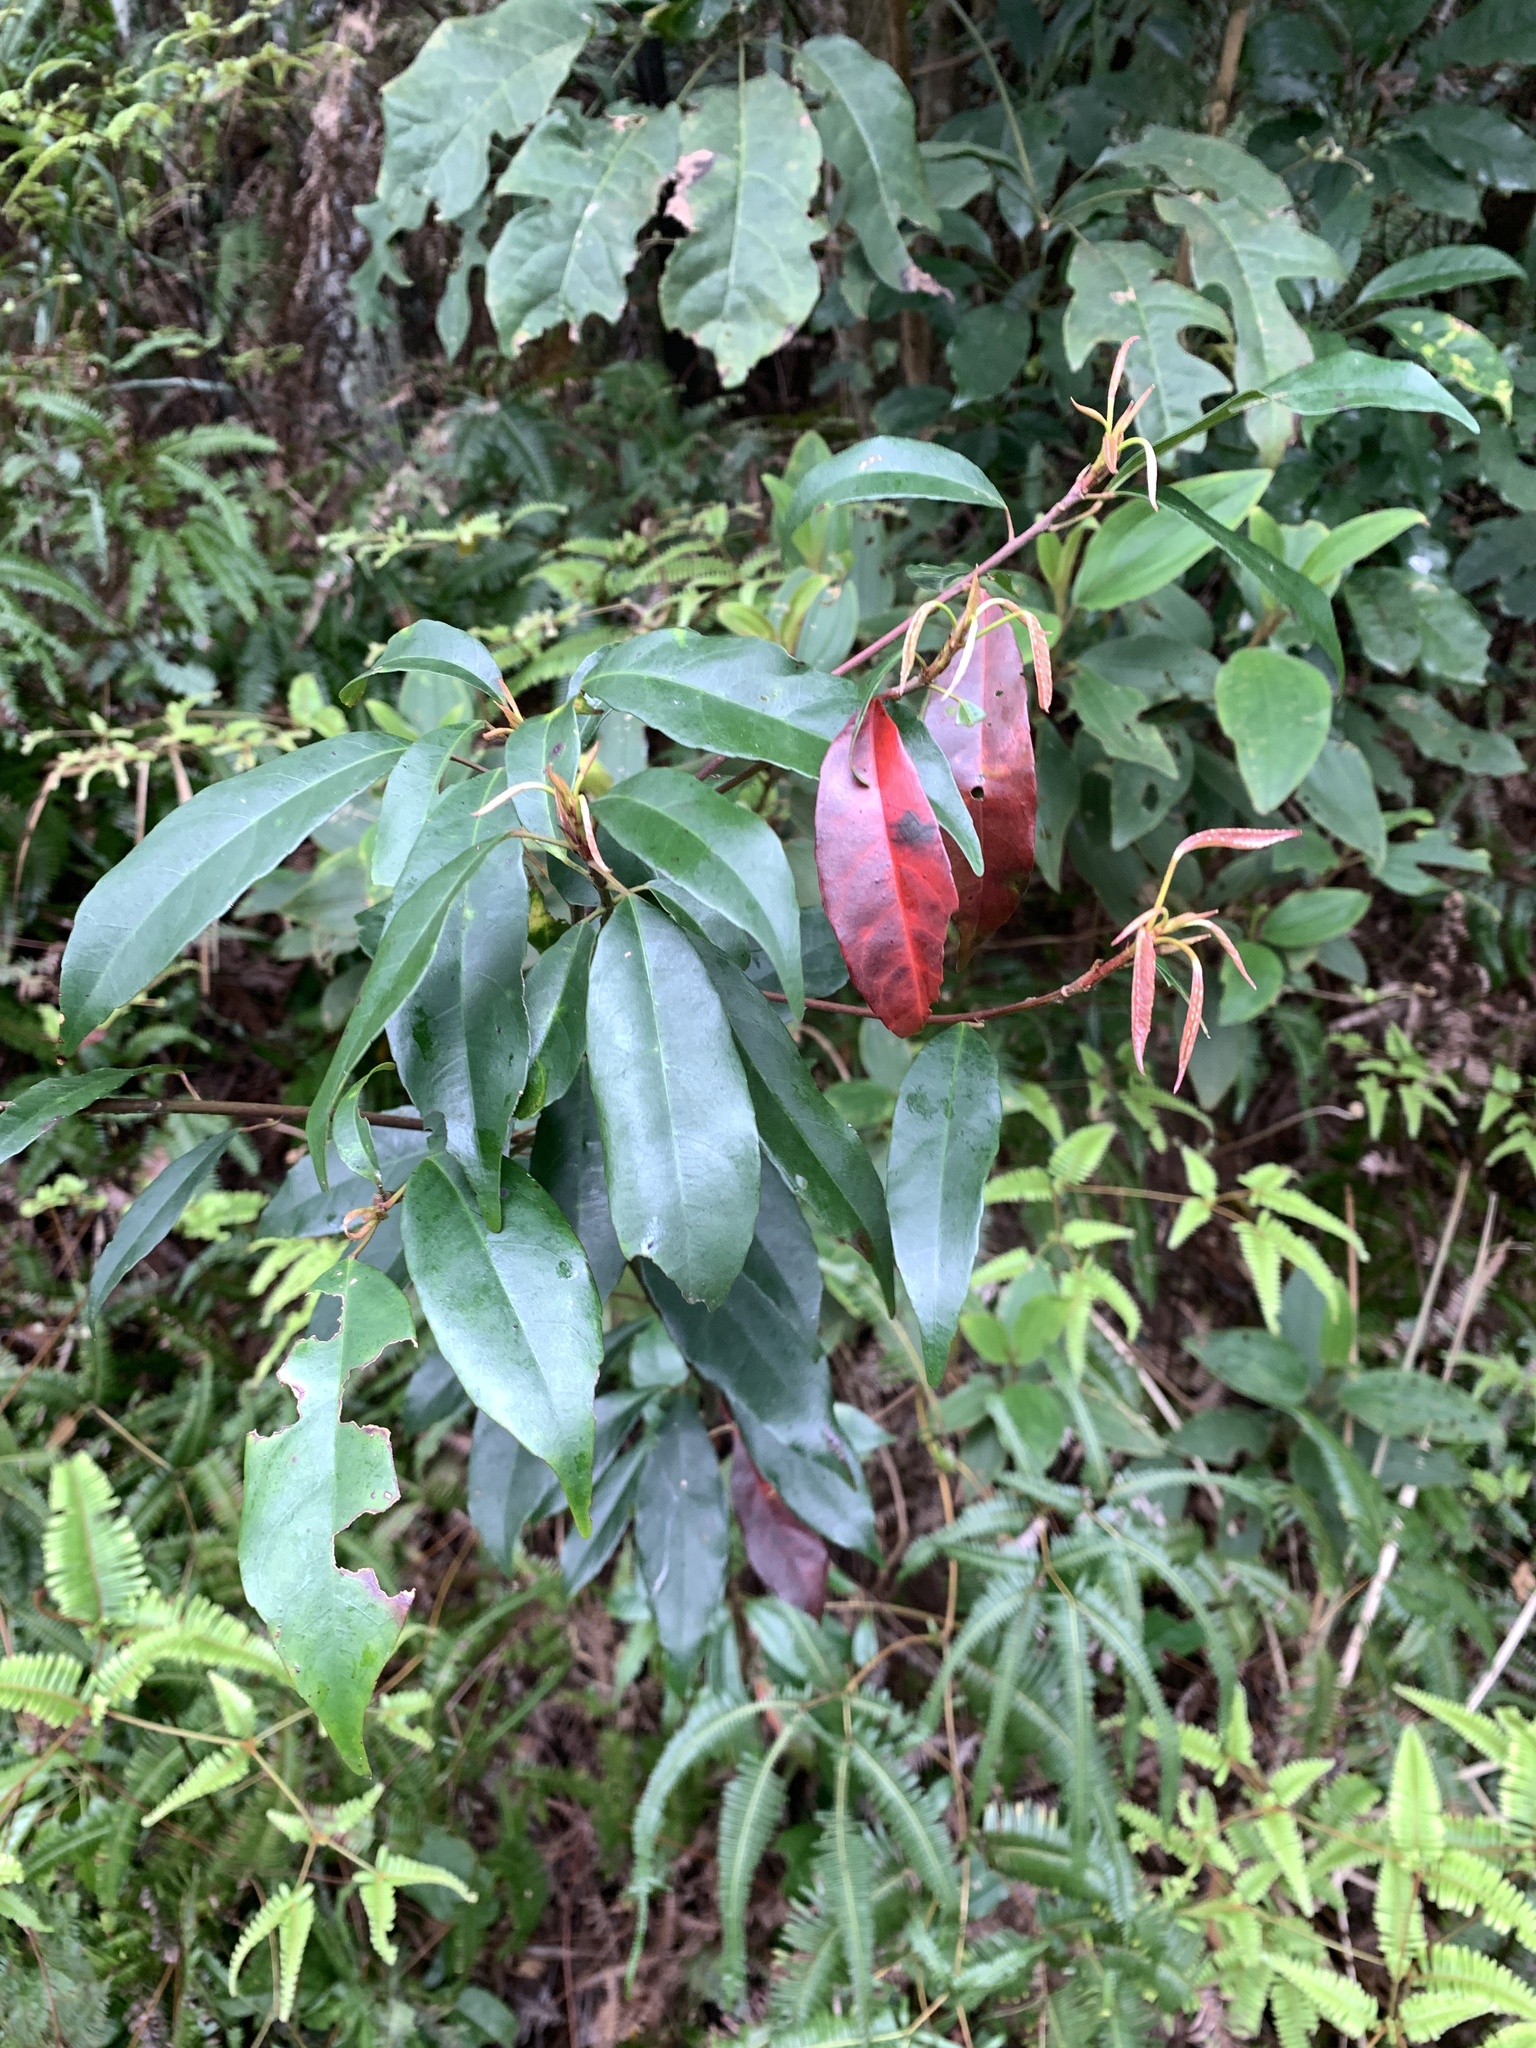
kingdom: Plantae
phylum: Tracheophyta
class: Magnoliopsida
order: Oxalidales
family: Elaeocarpaceae
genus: Elaeocarpus
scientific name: Elaeocarpus japonicus
